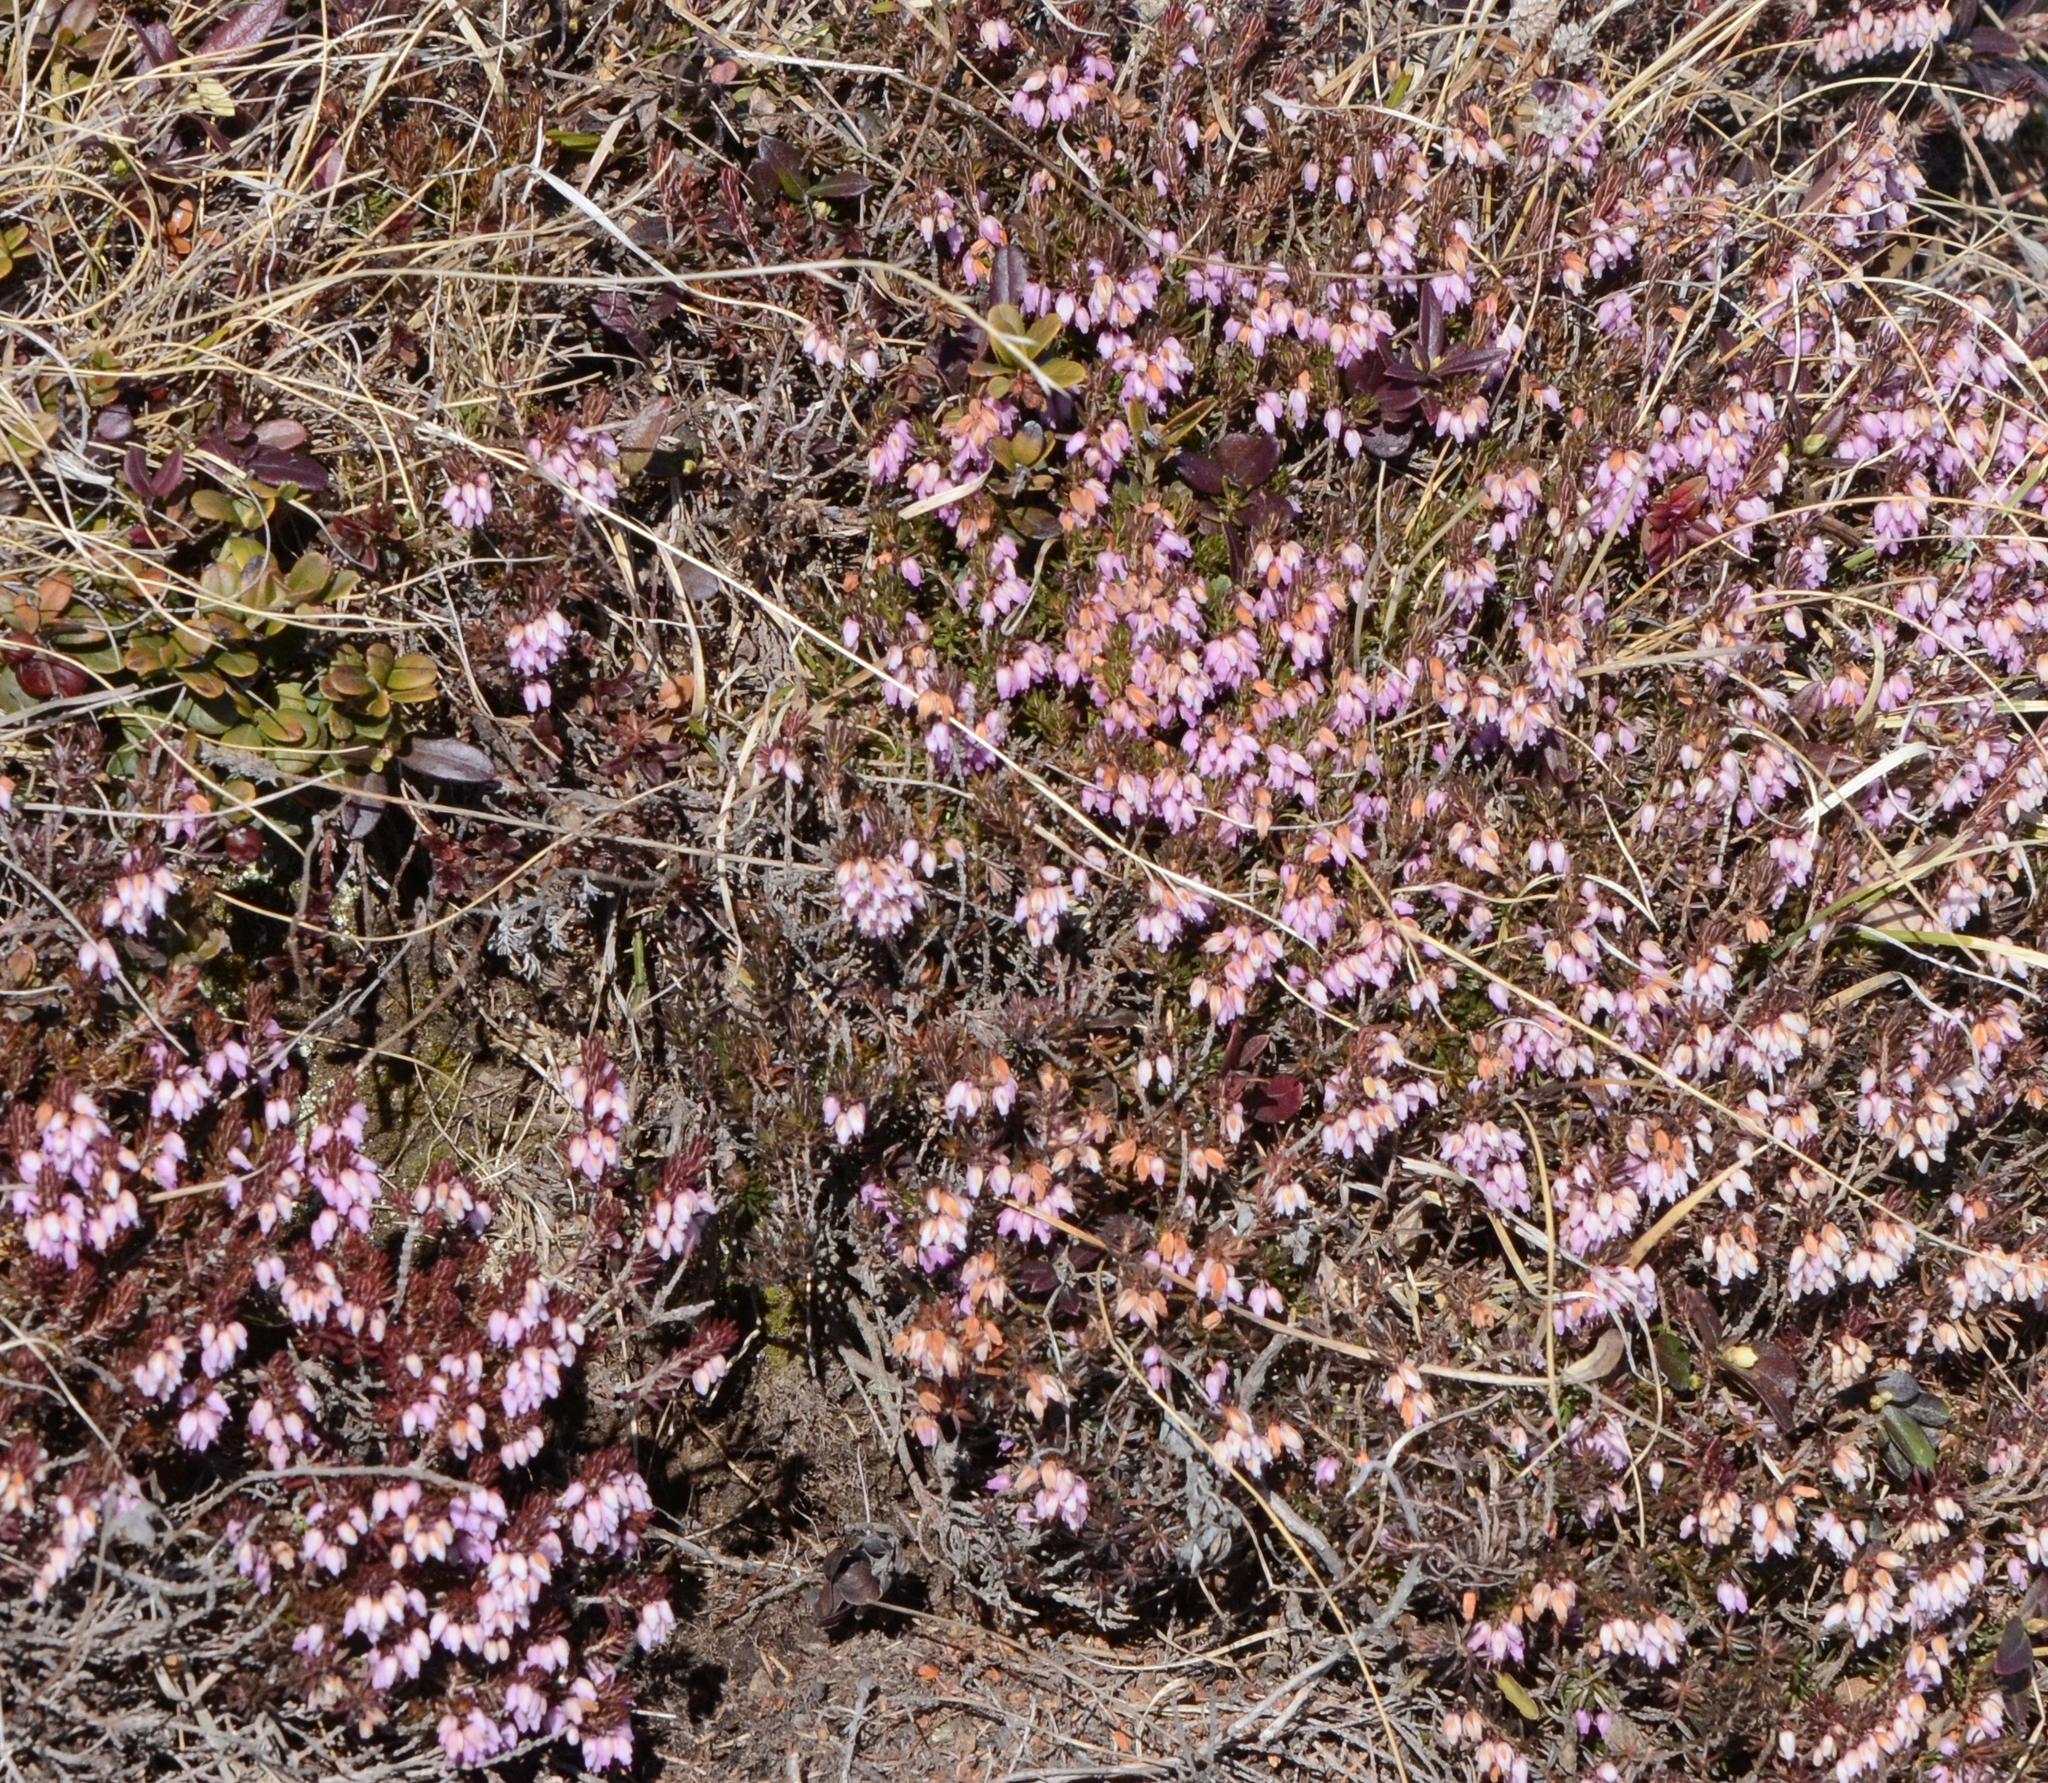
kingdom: Plantae
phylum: Tracheophyta
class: Magnoliopsida
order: Ericales
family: Ericaceae
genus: Erica
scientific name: Erica carnea
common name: Winter heath
